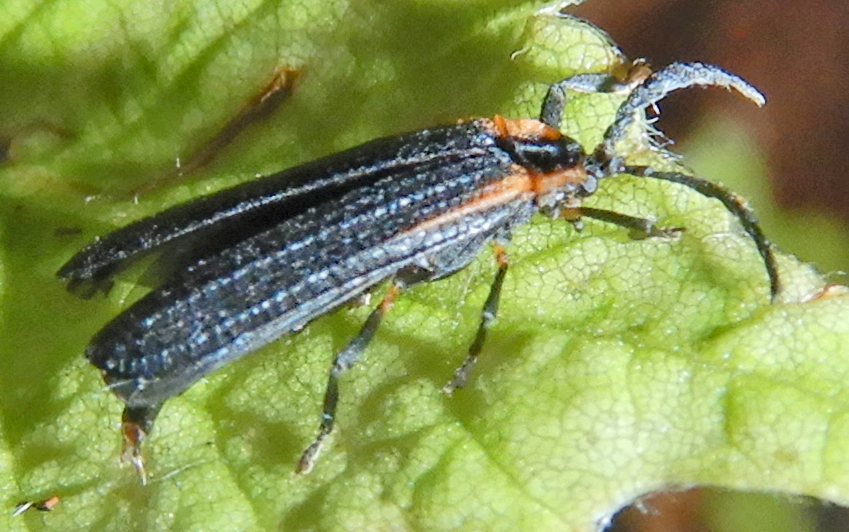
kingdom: Animalia
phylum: Arthropoda
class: Insecta
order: Coleoptera
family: Lycidae
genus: Leptoceletes
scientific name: Leptoceletes basalis
